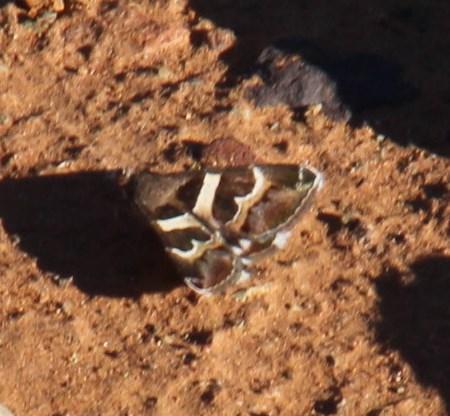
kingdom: Animalia
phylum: Arthropoda
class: Insecta
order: Lepidoptera
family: Erebidae
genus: Grammodes
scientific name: Grammodes stolida
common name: Geometrician
